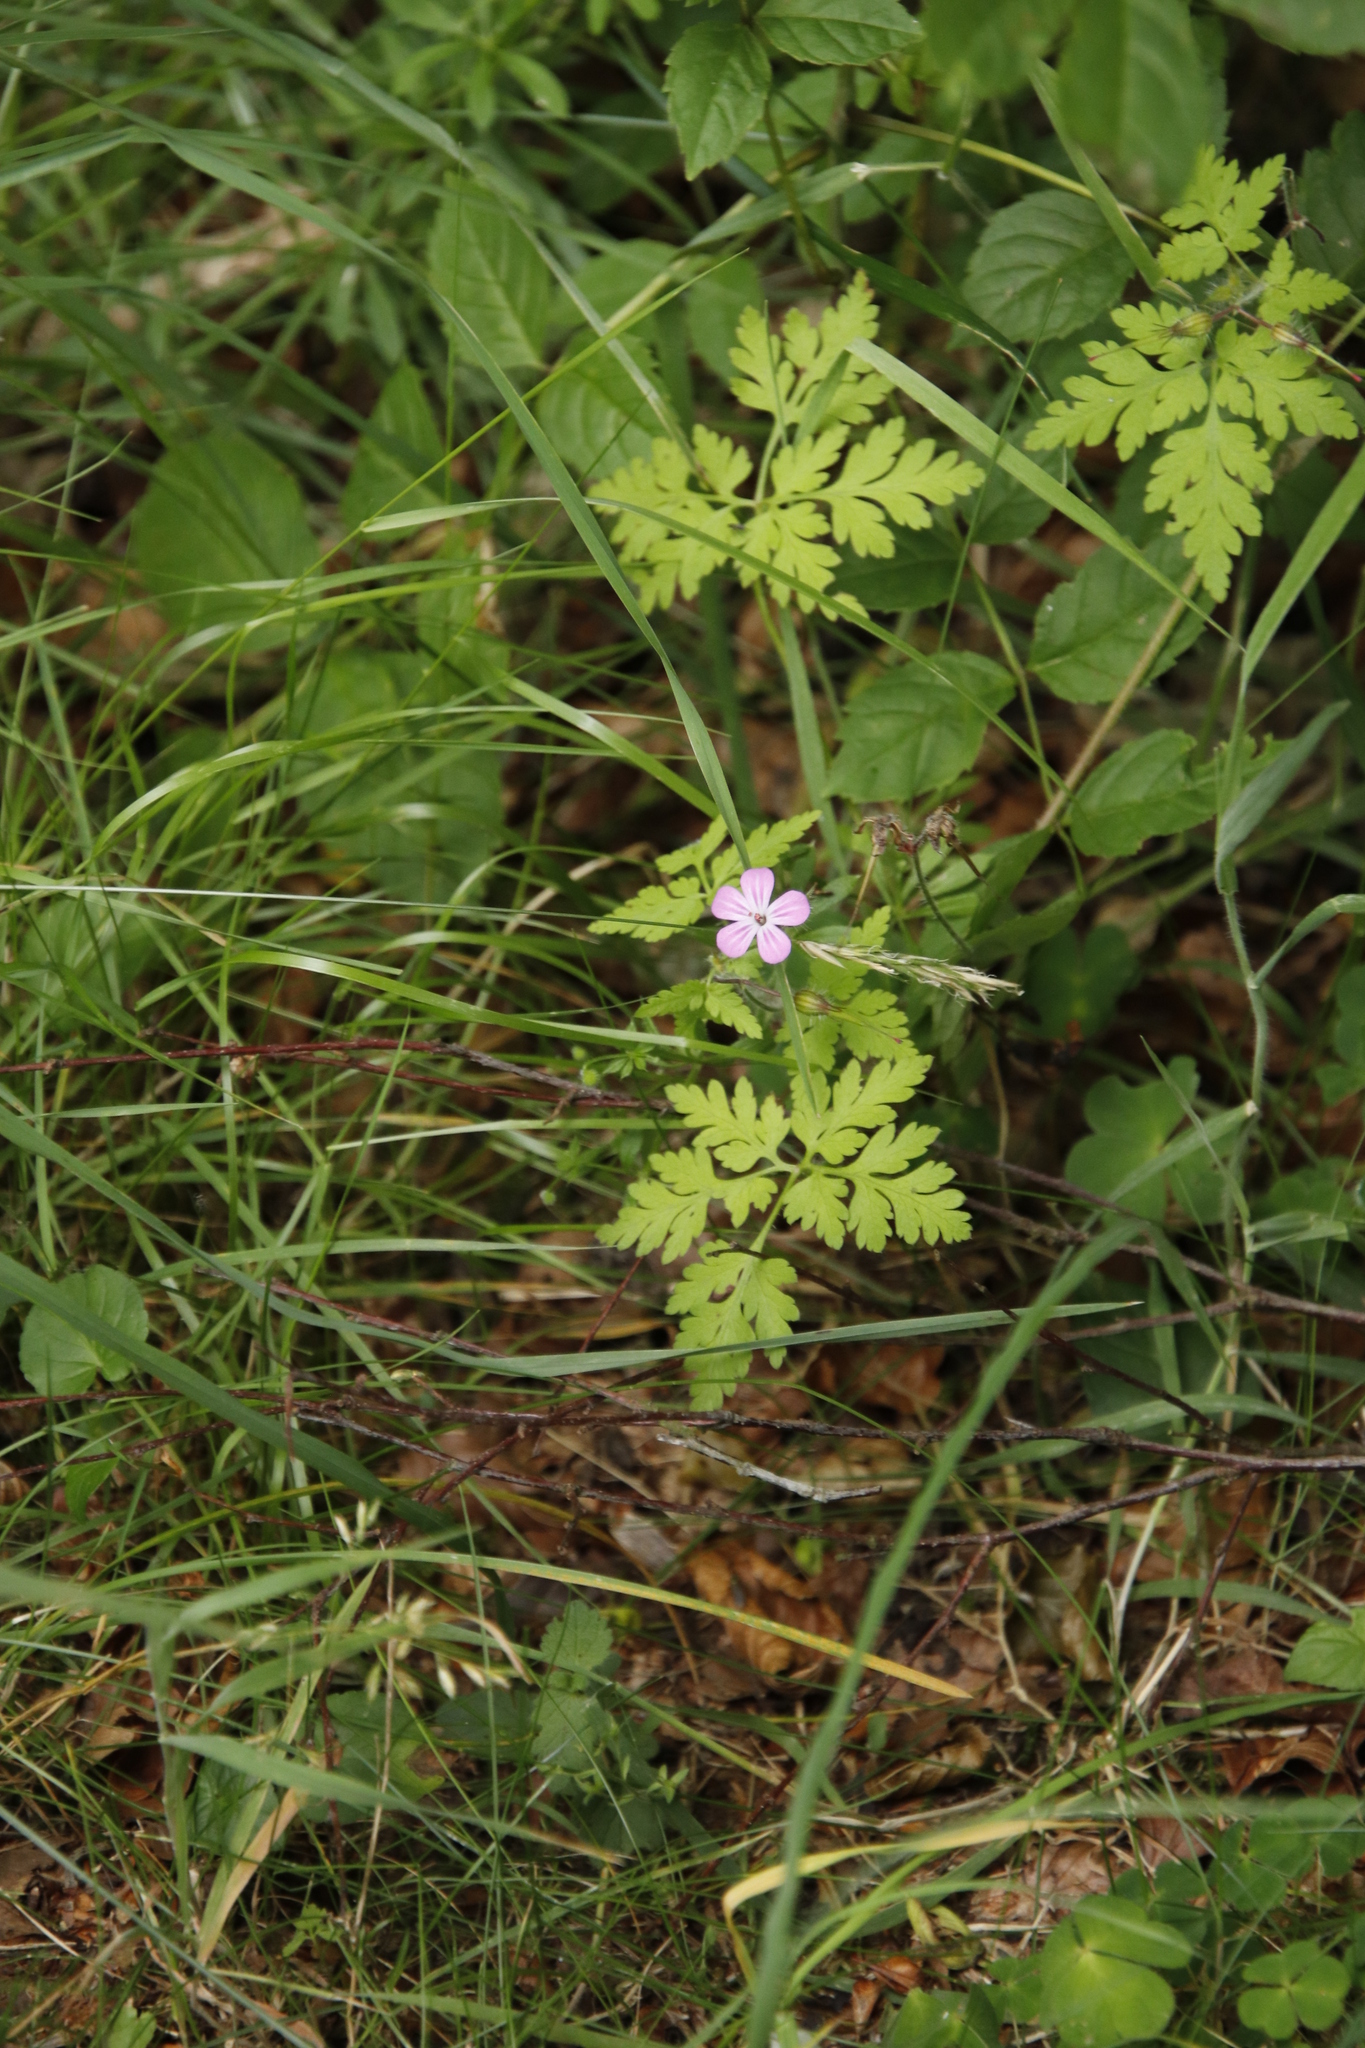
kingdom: Plantae
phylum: Tracheophyta
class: Magnoliopsida
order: Geraniales
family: Geraniaceae
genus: Geranium
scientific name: Geranium robertianum
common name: Herb-robert
